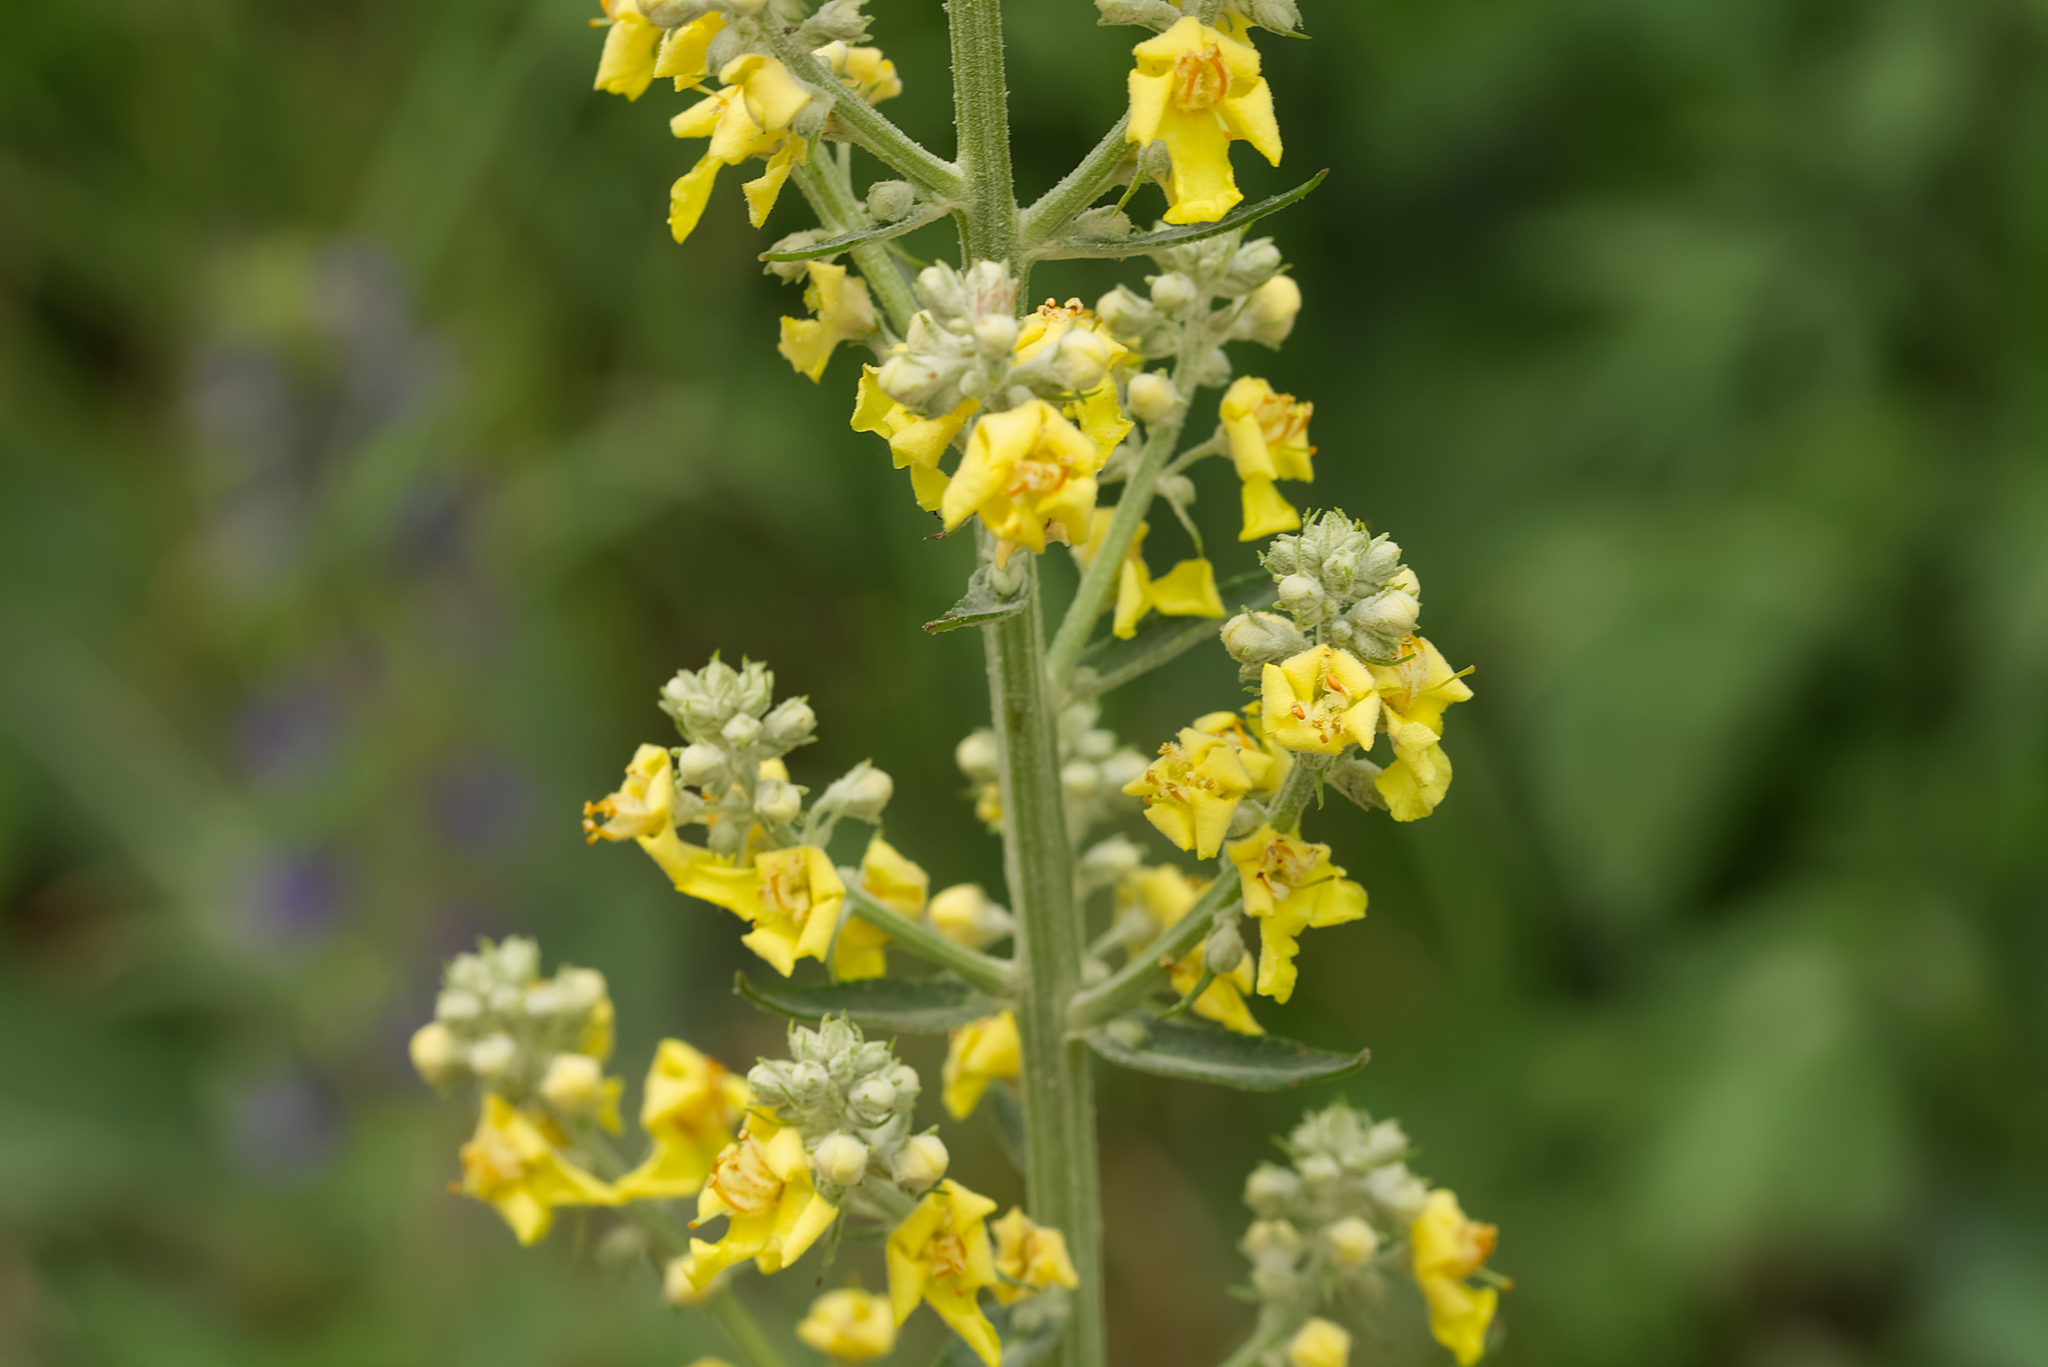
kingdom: Plantae
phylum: Tracheophyta
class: Magnoliopsida
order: Lamiales
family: Scrophulariaceae
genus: Verbascum
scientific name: Verbascum lychnitis
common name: White mullein
